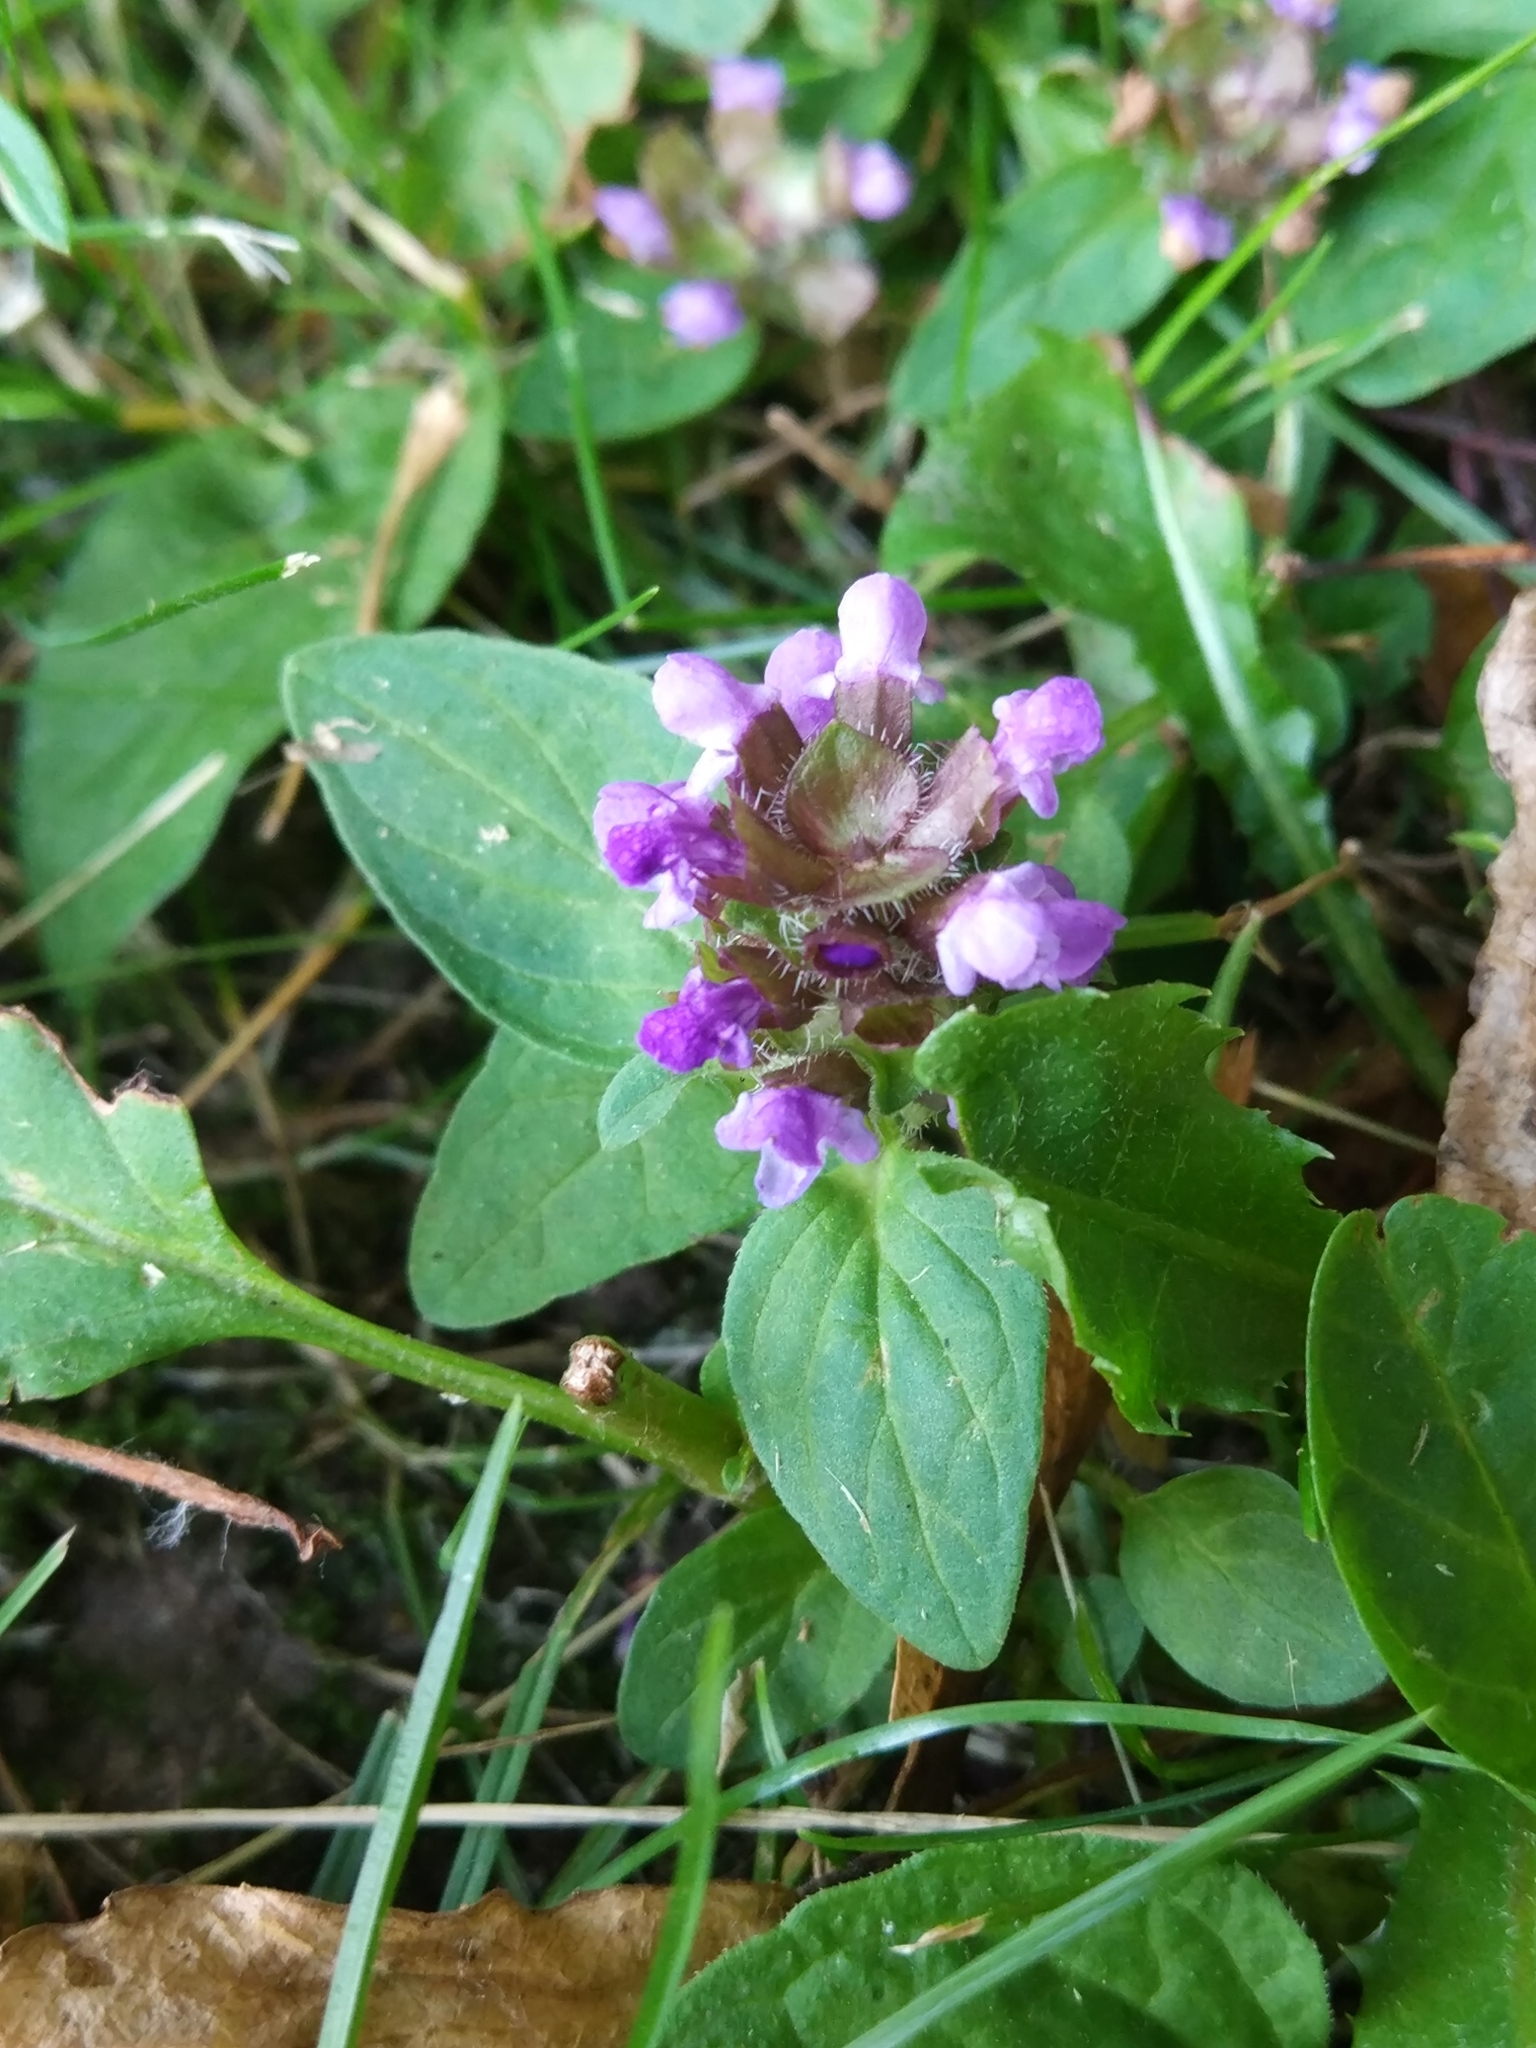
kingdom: Plantae
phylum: Tracheophyta
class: Magnoliopsida
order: Lamiales
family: Lamiaceae
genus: Prunella
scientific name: Prunella vulgaris
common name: Heal-all
